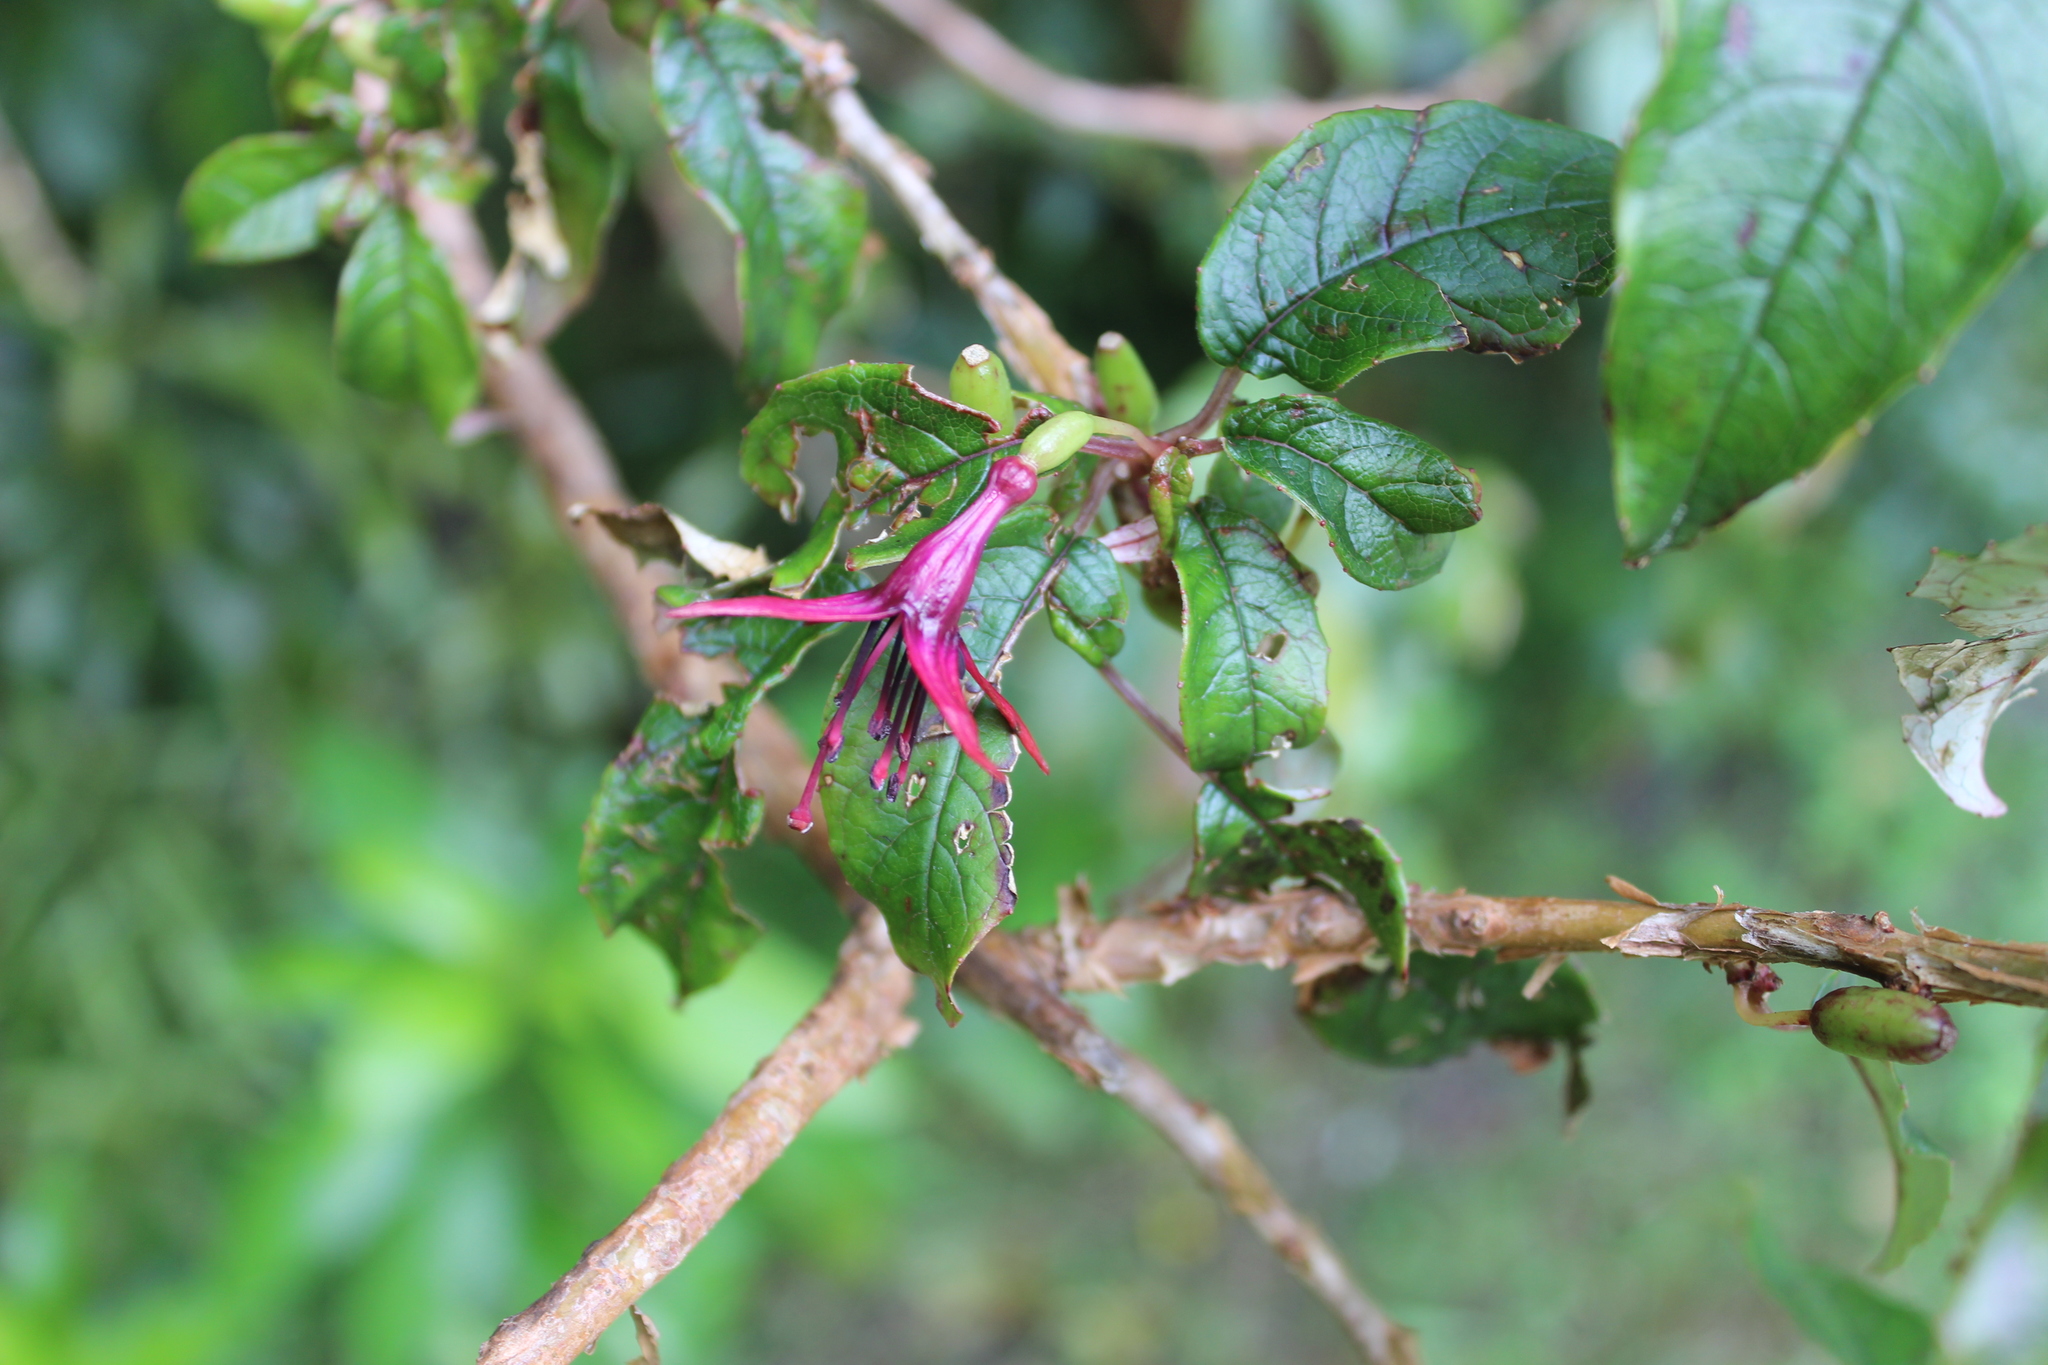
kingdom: Plantae
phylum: Tracheophyta
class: Magnoliopsida
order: Myrtales
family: Onagraceae
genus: Fuchsia
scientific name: Fuchsia excorticata
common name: Tree fuchsia
